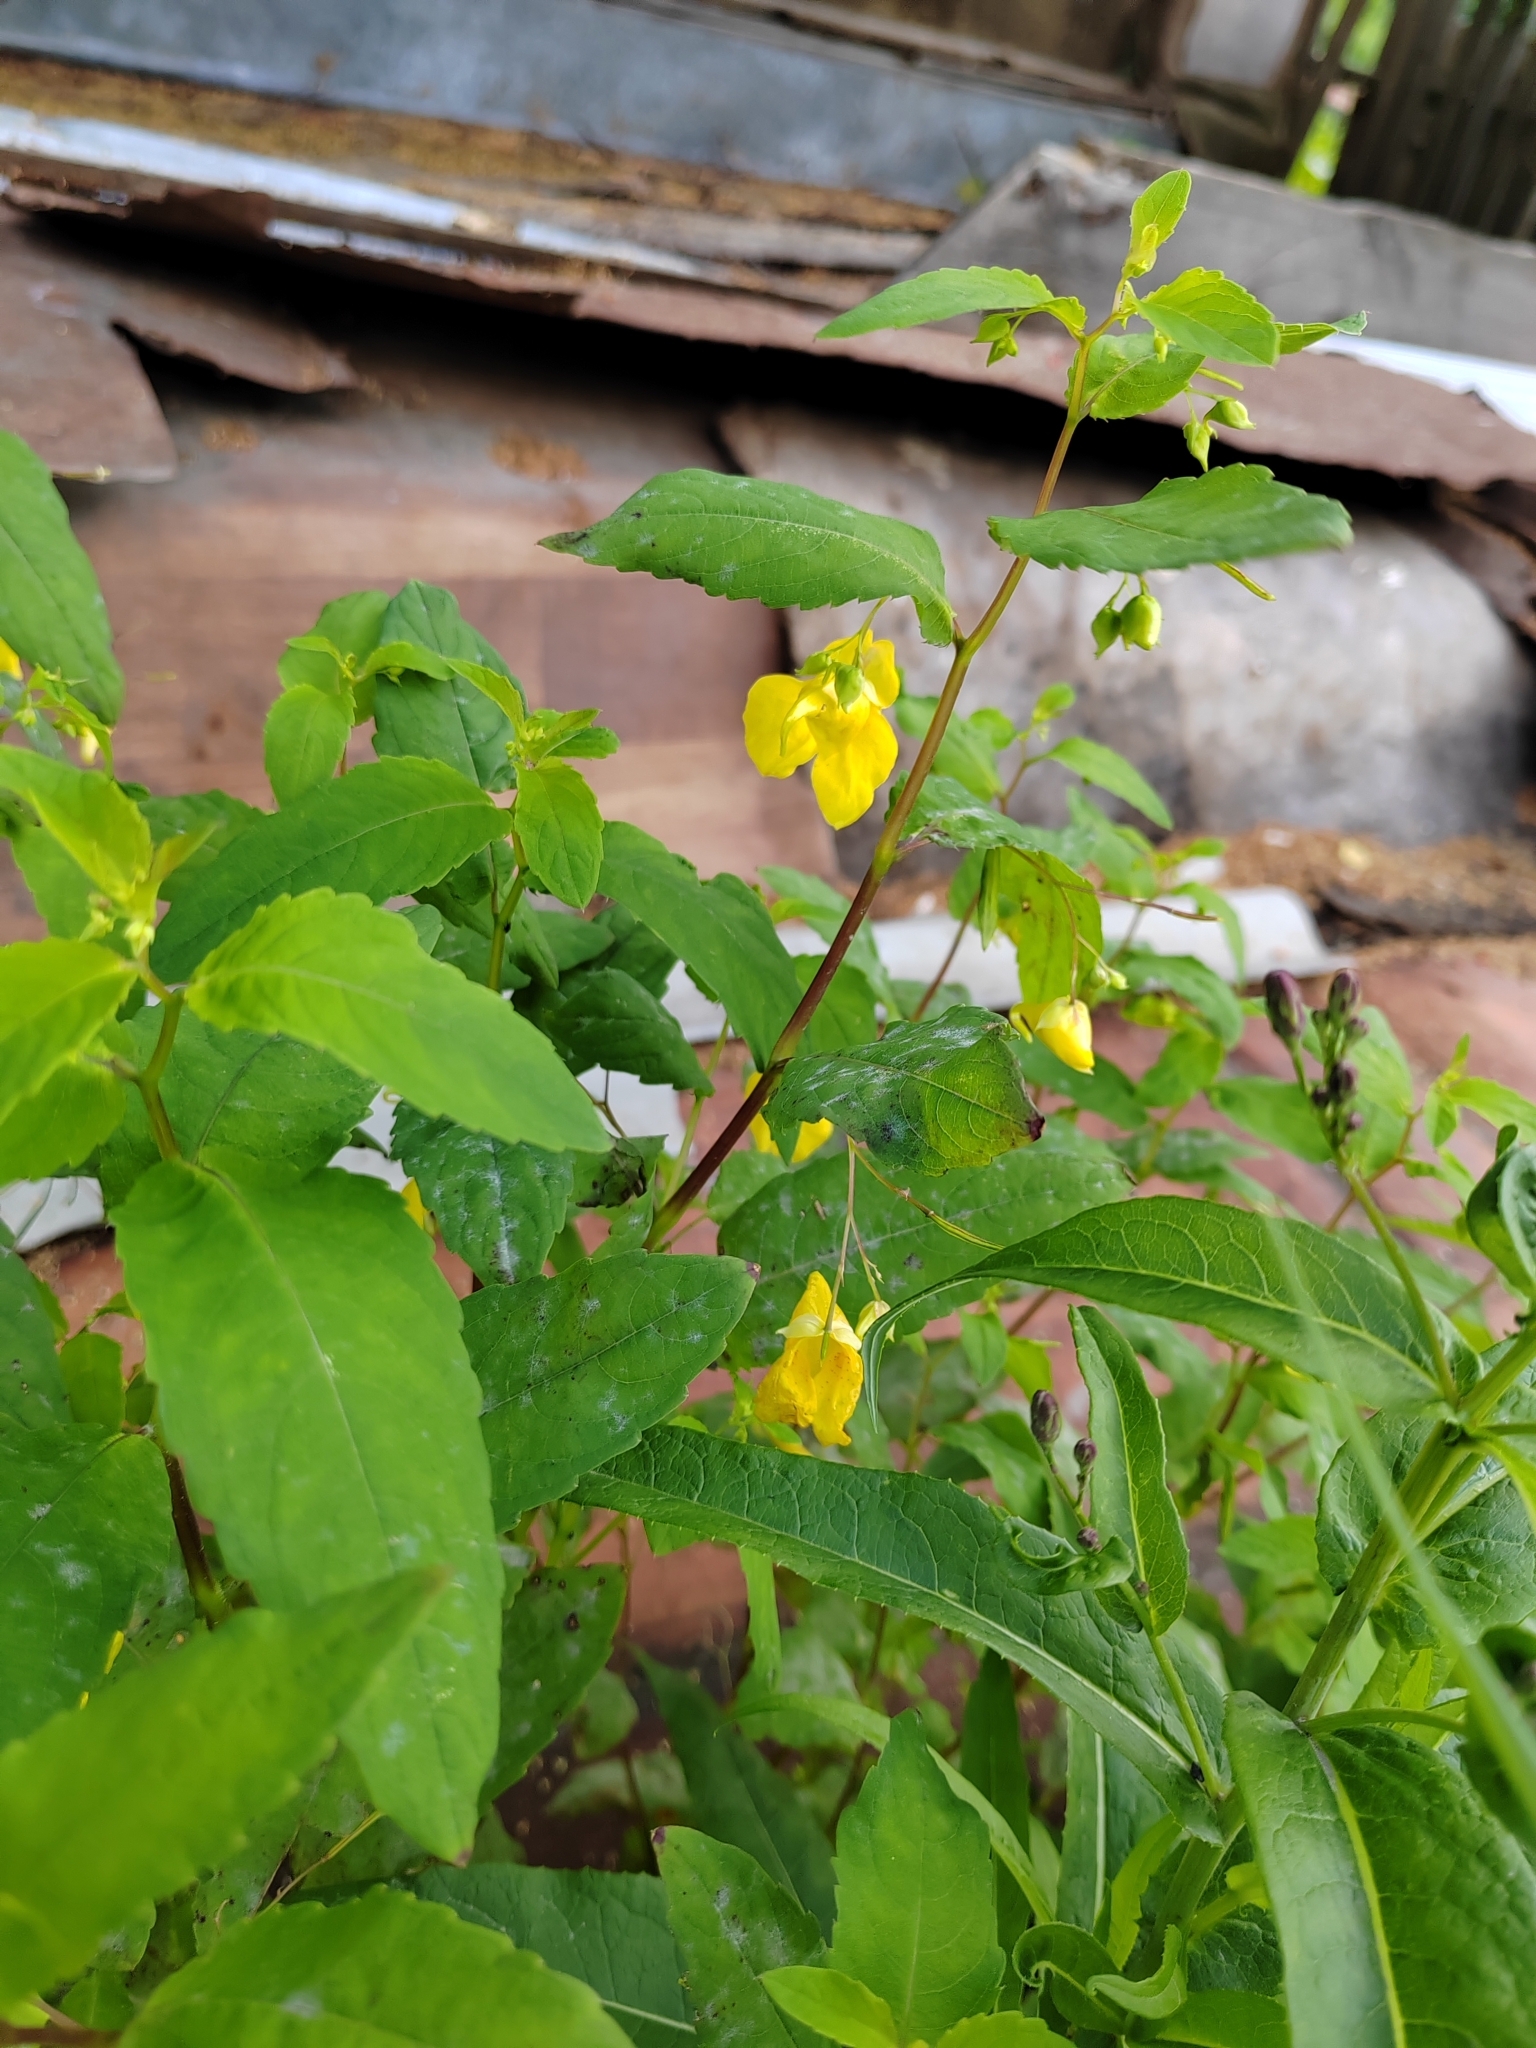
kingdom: Plantae
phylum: Tracheophyta
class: Magnoliopsida
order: Ericales
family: Balsaminaceae
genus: Impatiens
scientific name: Impatiens noli-tangere
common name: Touch-me-not balsam
